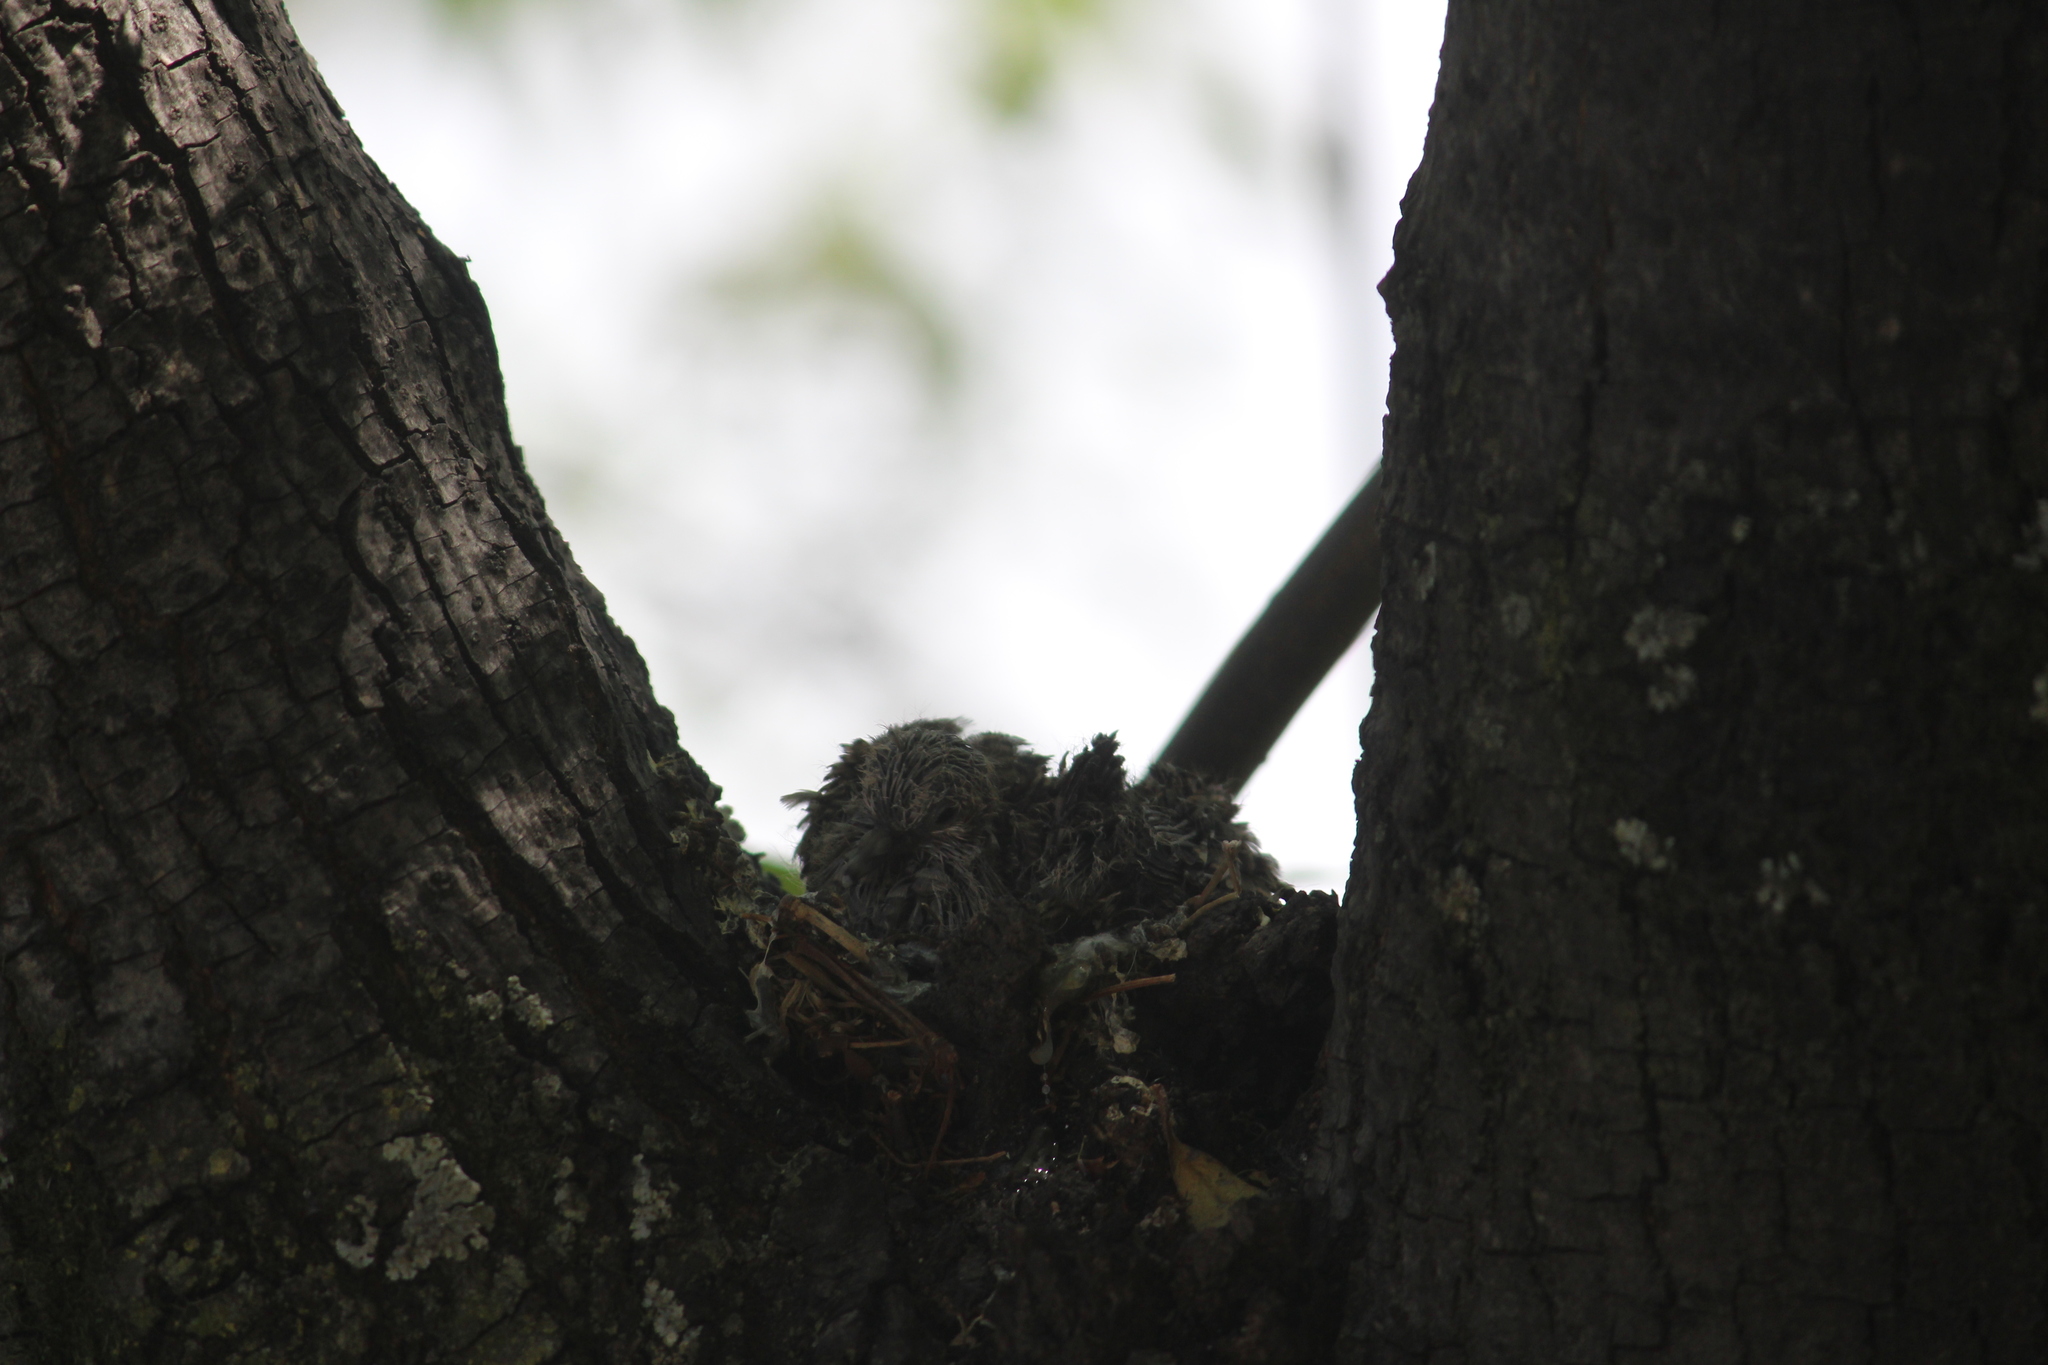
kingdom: Animalia
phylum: Chordata
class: Aves
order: Columbiformes
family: Columbidae
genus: Columbina
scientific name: Columbina inca
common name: Inca dove
